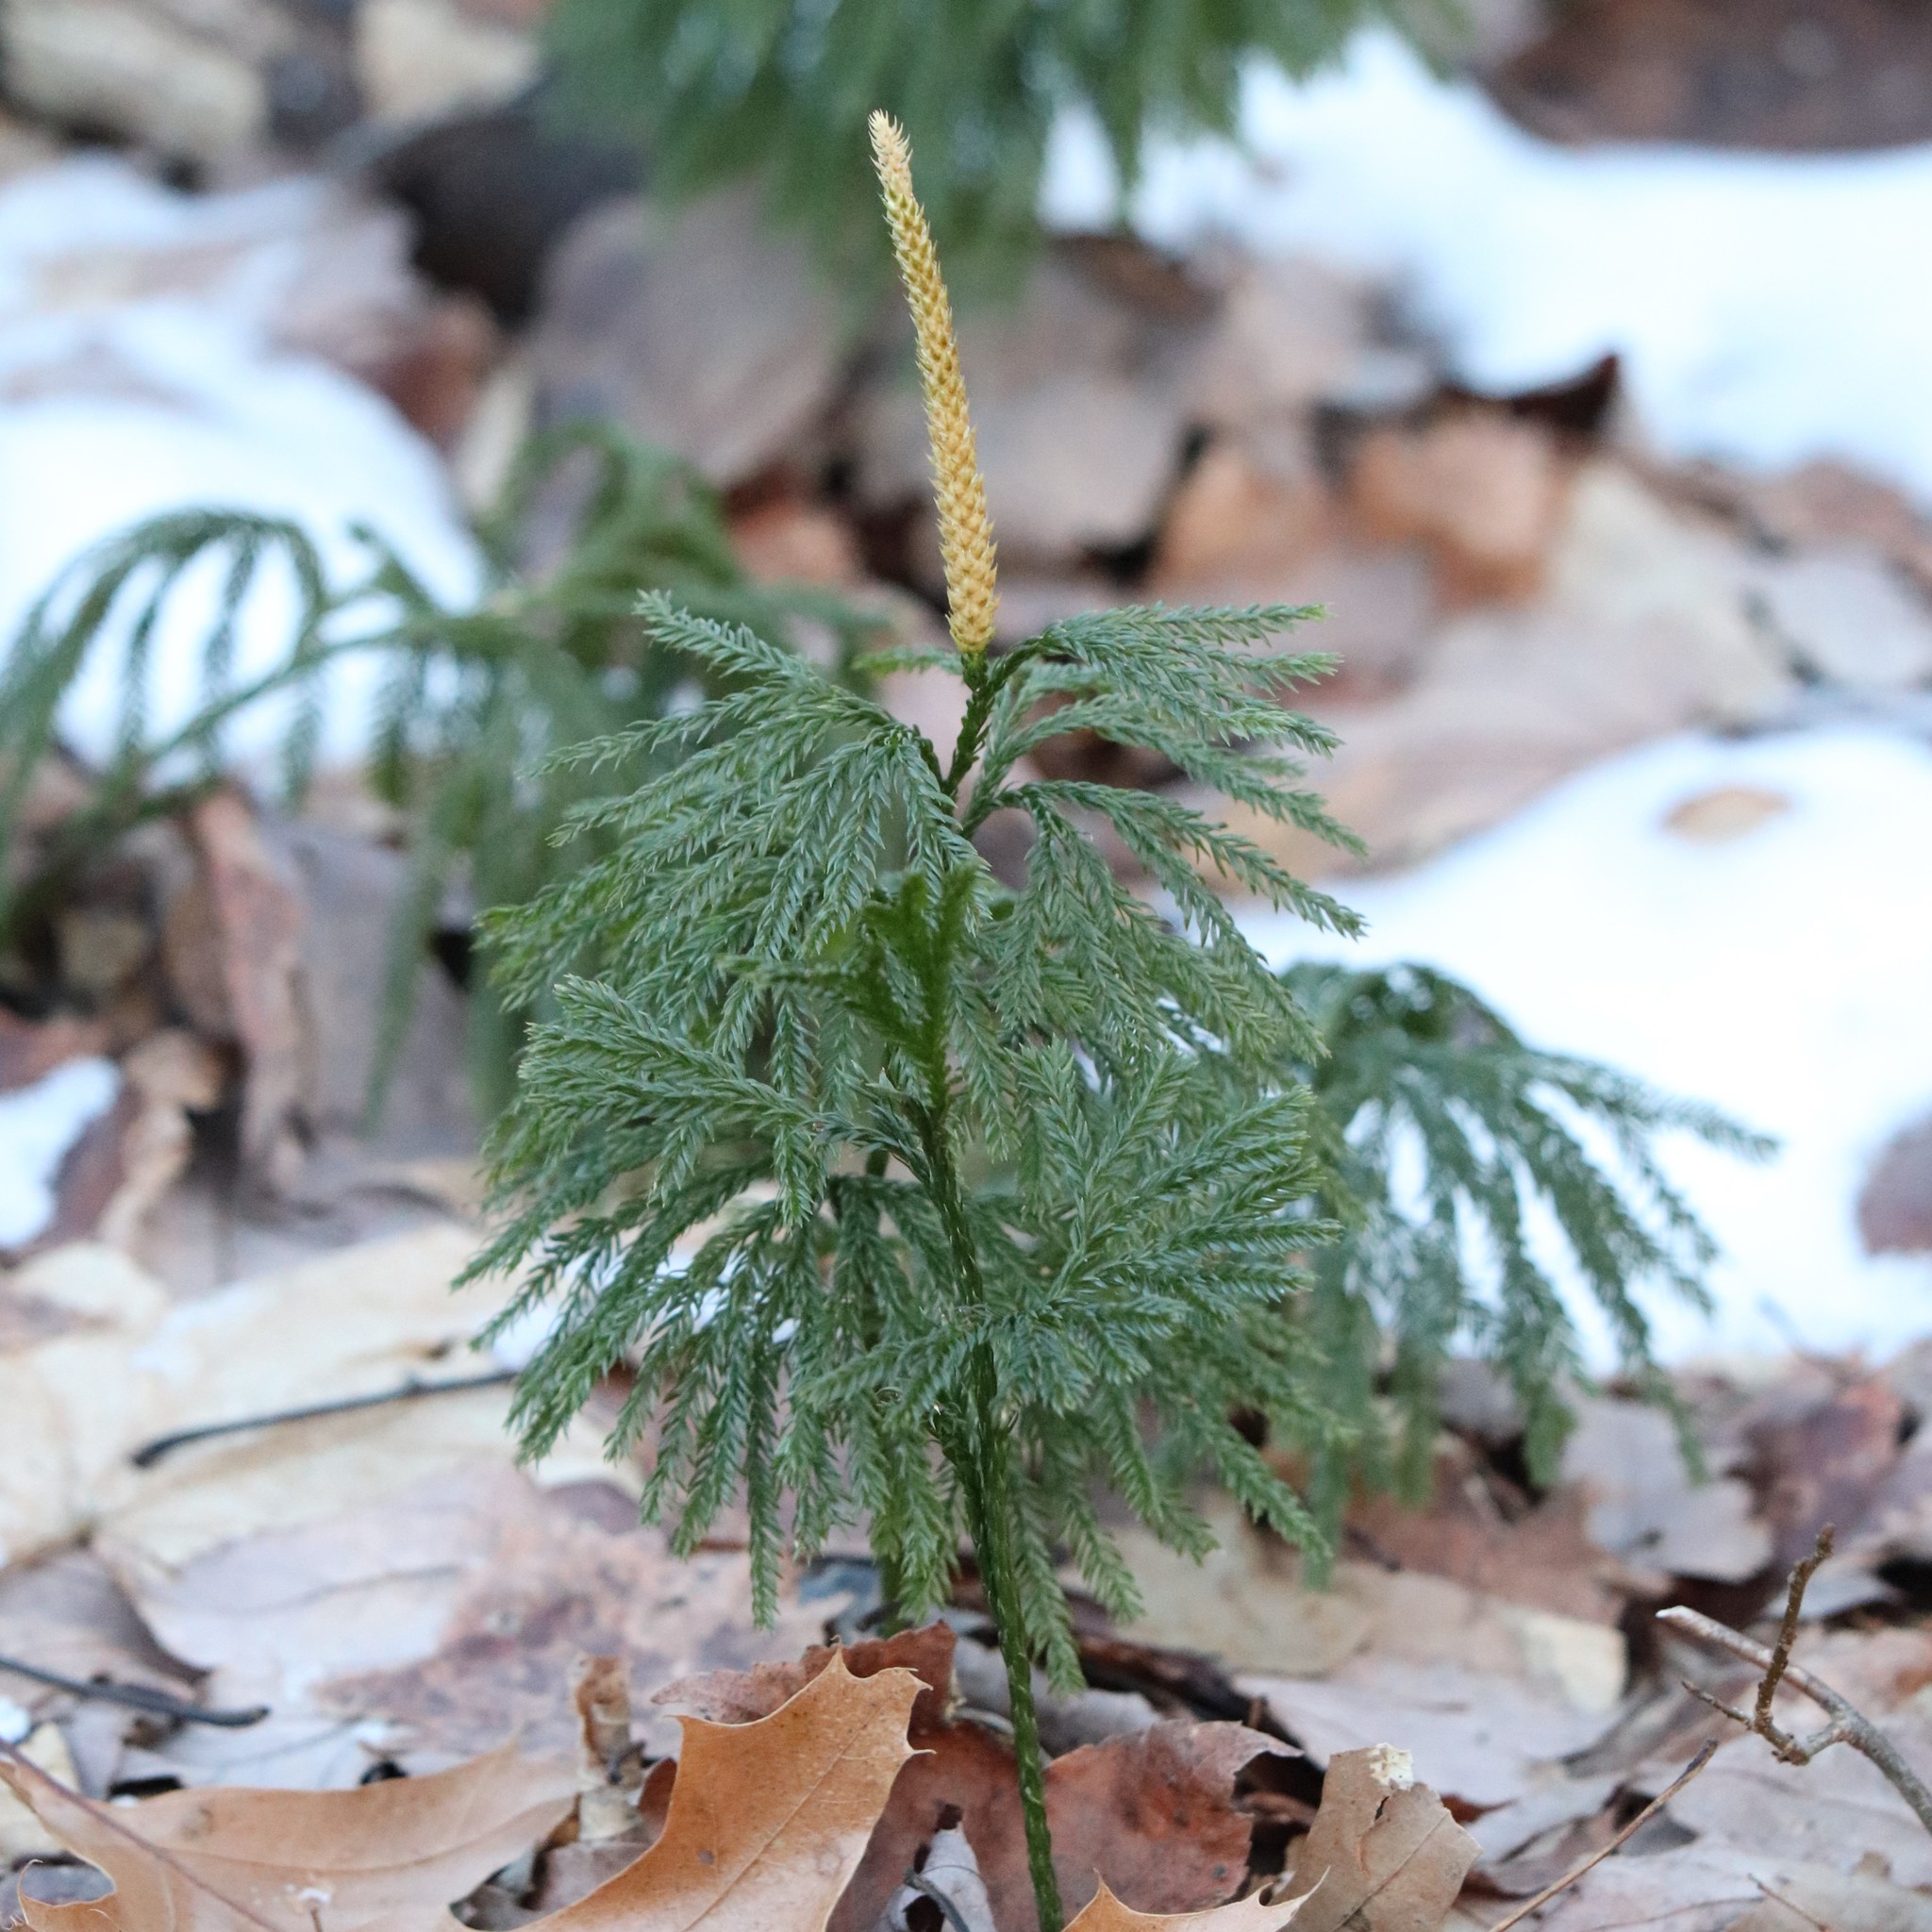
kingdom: Plantae
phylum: Tracheophyta
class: Lycopodiopsida
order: Lycopodiales
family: Lycopodiaceae
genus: Dendrolycopodium
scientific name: Dendrolycopodium obscurum
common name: Common ground-pine
